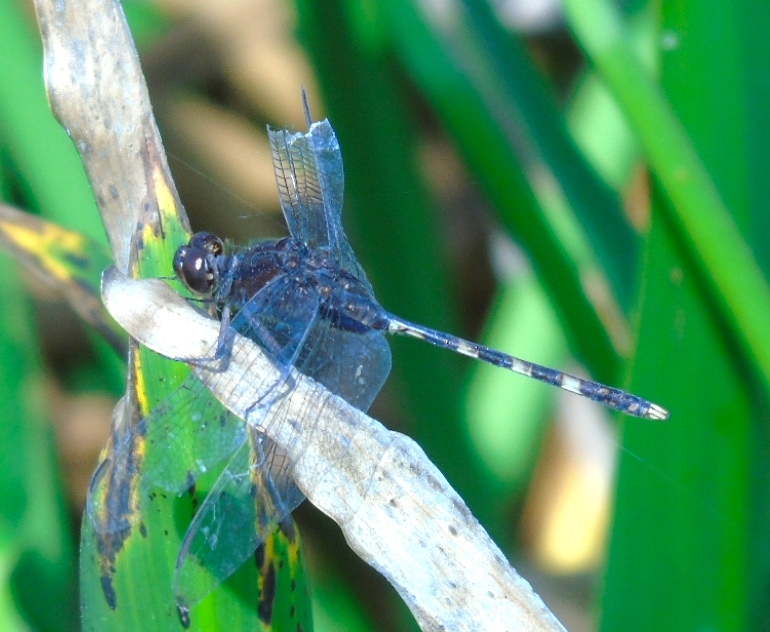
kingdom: Animalia
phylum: Arthropoda
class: Insecta
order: Odonata
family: Libellulidae
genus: Erythemis
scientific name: Erythemis plebeja
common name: Pin-tailed pondhawk
